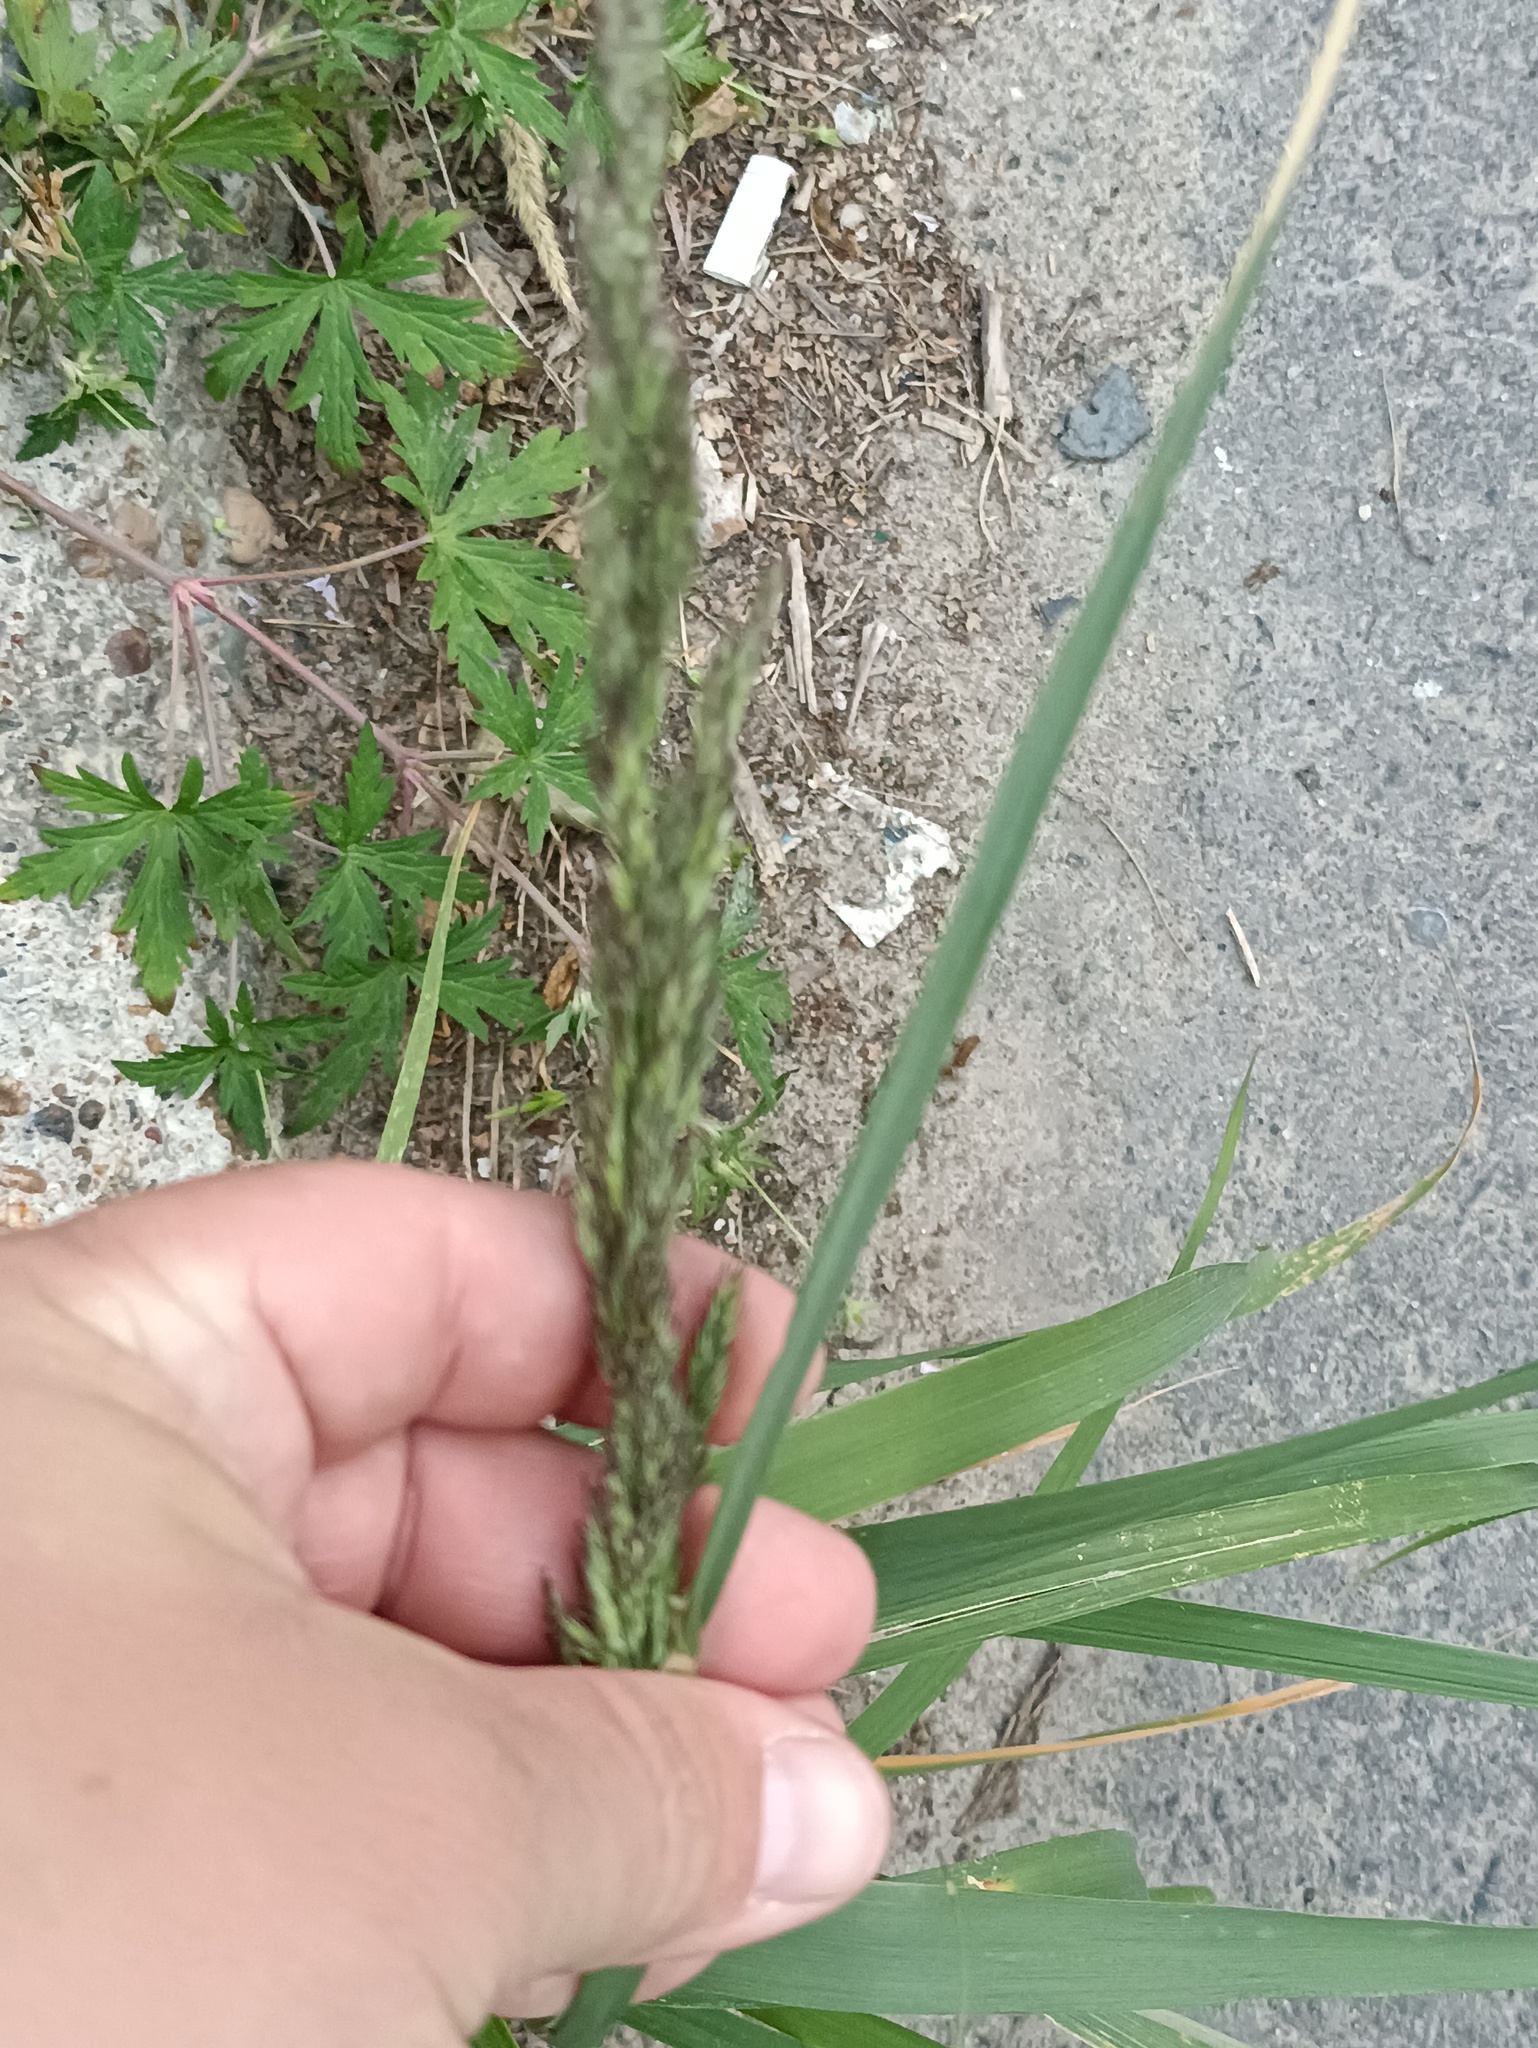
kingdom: Plantae
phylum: Tracheophyta
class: Liliopsida
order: Poales
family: Poaceae
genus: Calamagrostis
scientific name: Calamagrostis epigejos
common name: Wood small-reed
